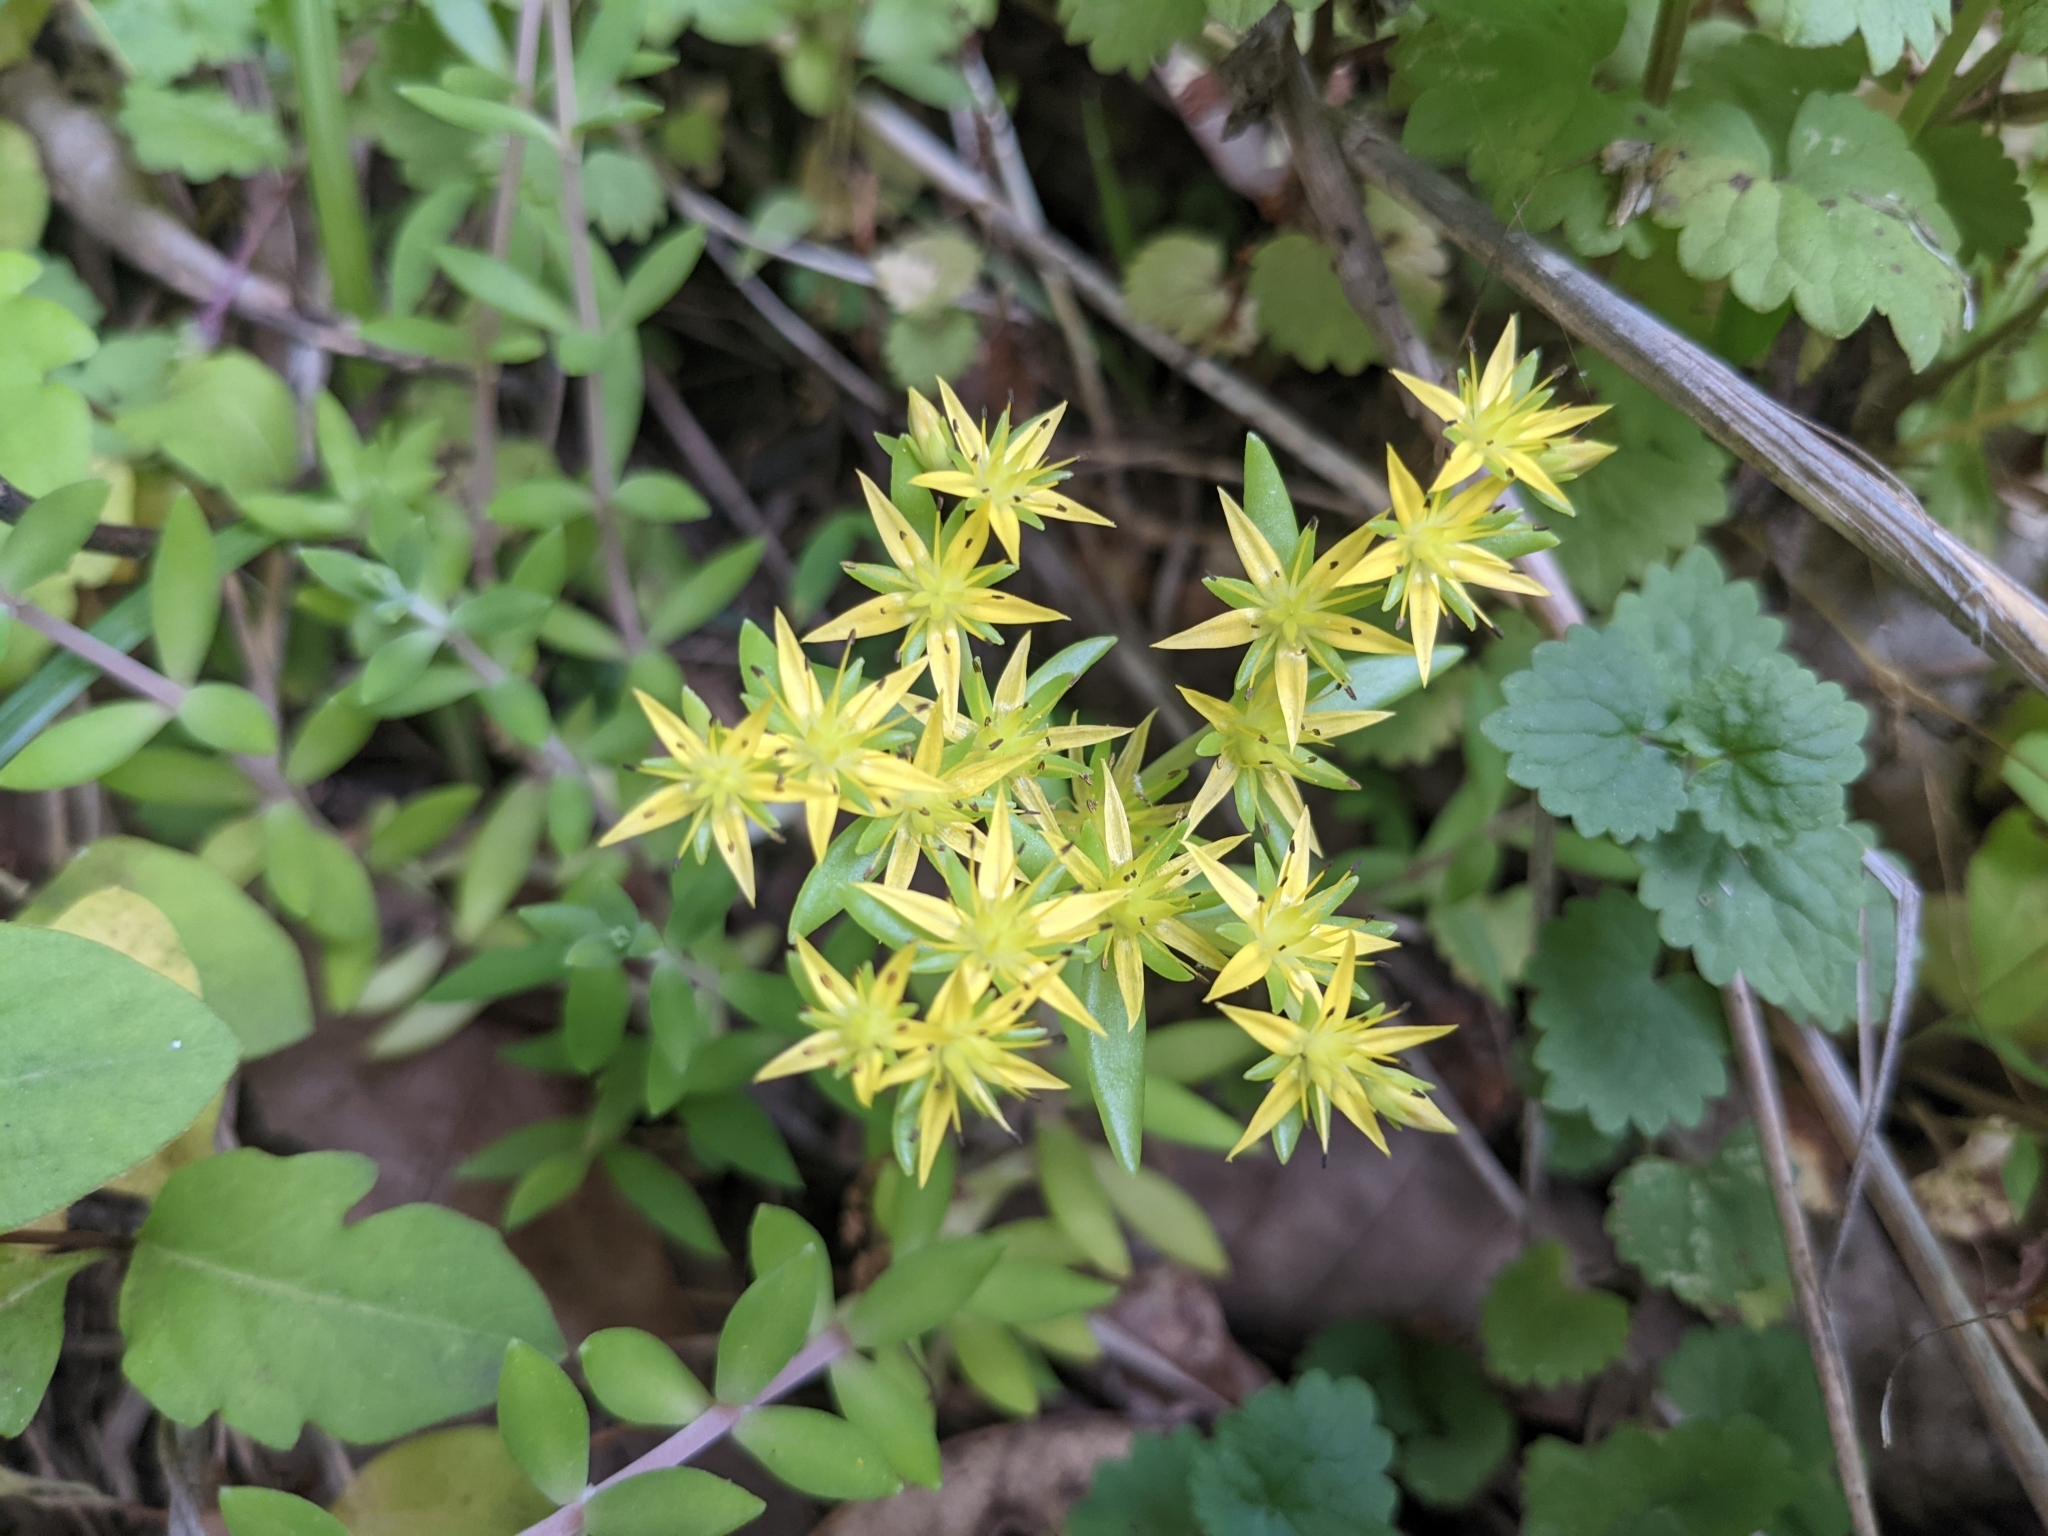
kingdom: Plantae
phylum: Tracheophyta
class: Magnoliopsida
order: Saxifragales
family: Crassulaceae
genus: Sedum
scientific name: Sedum sarmentosum
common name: Stringy stonecrop
